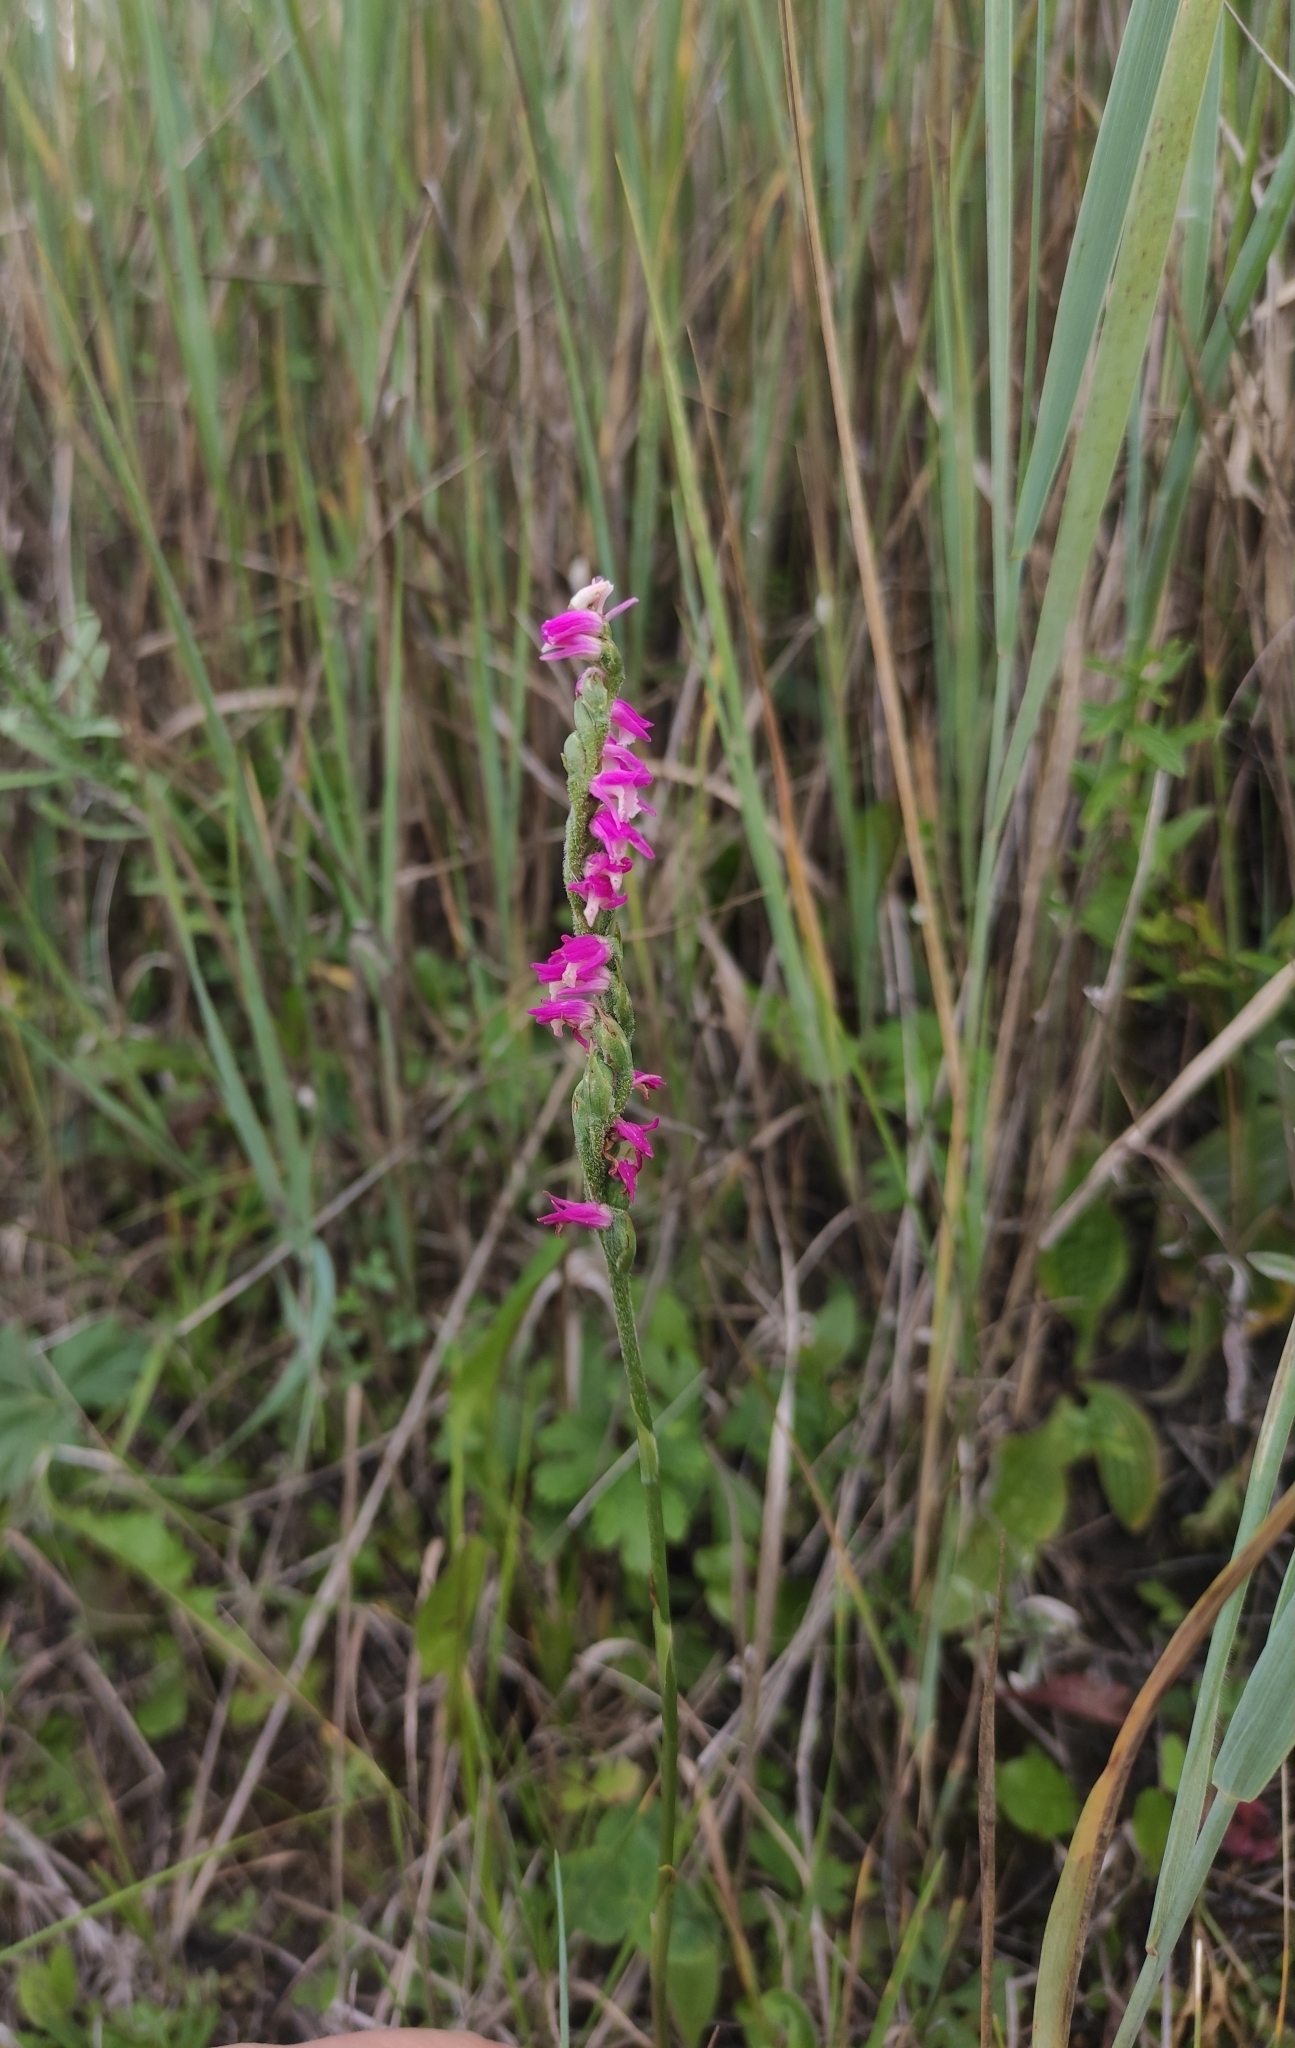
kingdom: Plantae
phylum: Tracheophyta
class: Liliopsida
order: Asparagales
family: Orchidaceae
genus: Spiranthes
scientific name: Spiranthes australis
